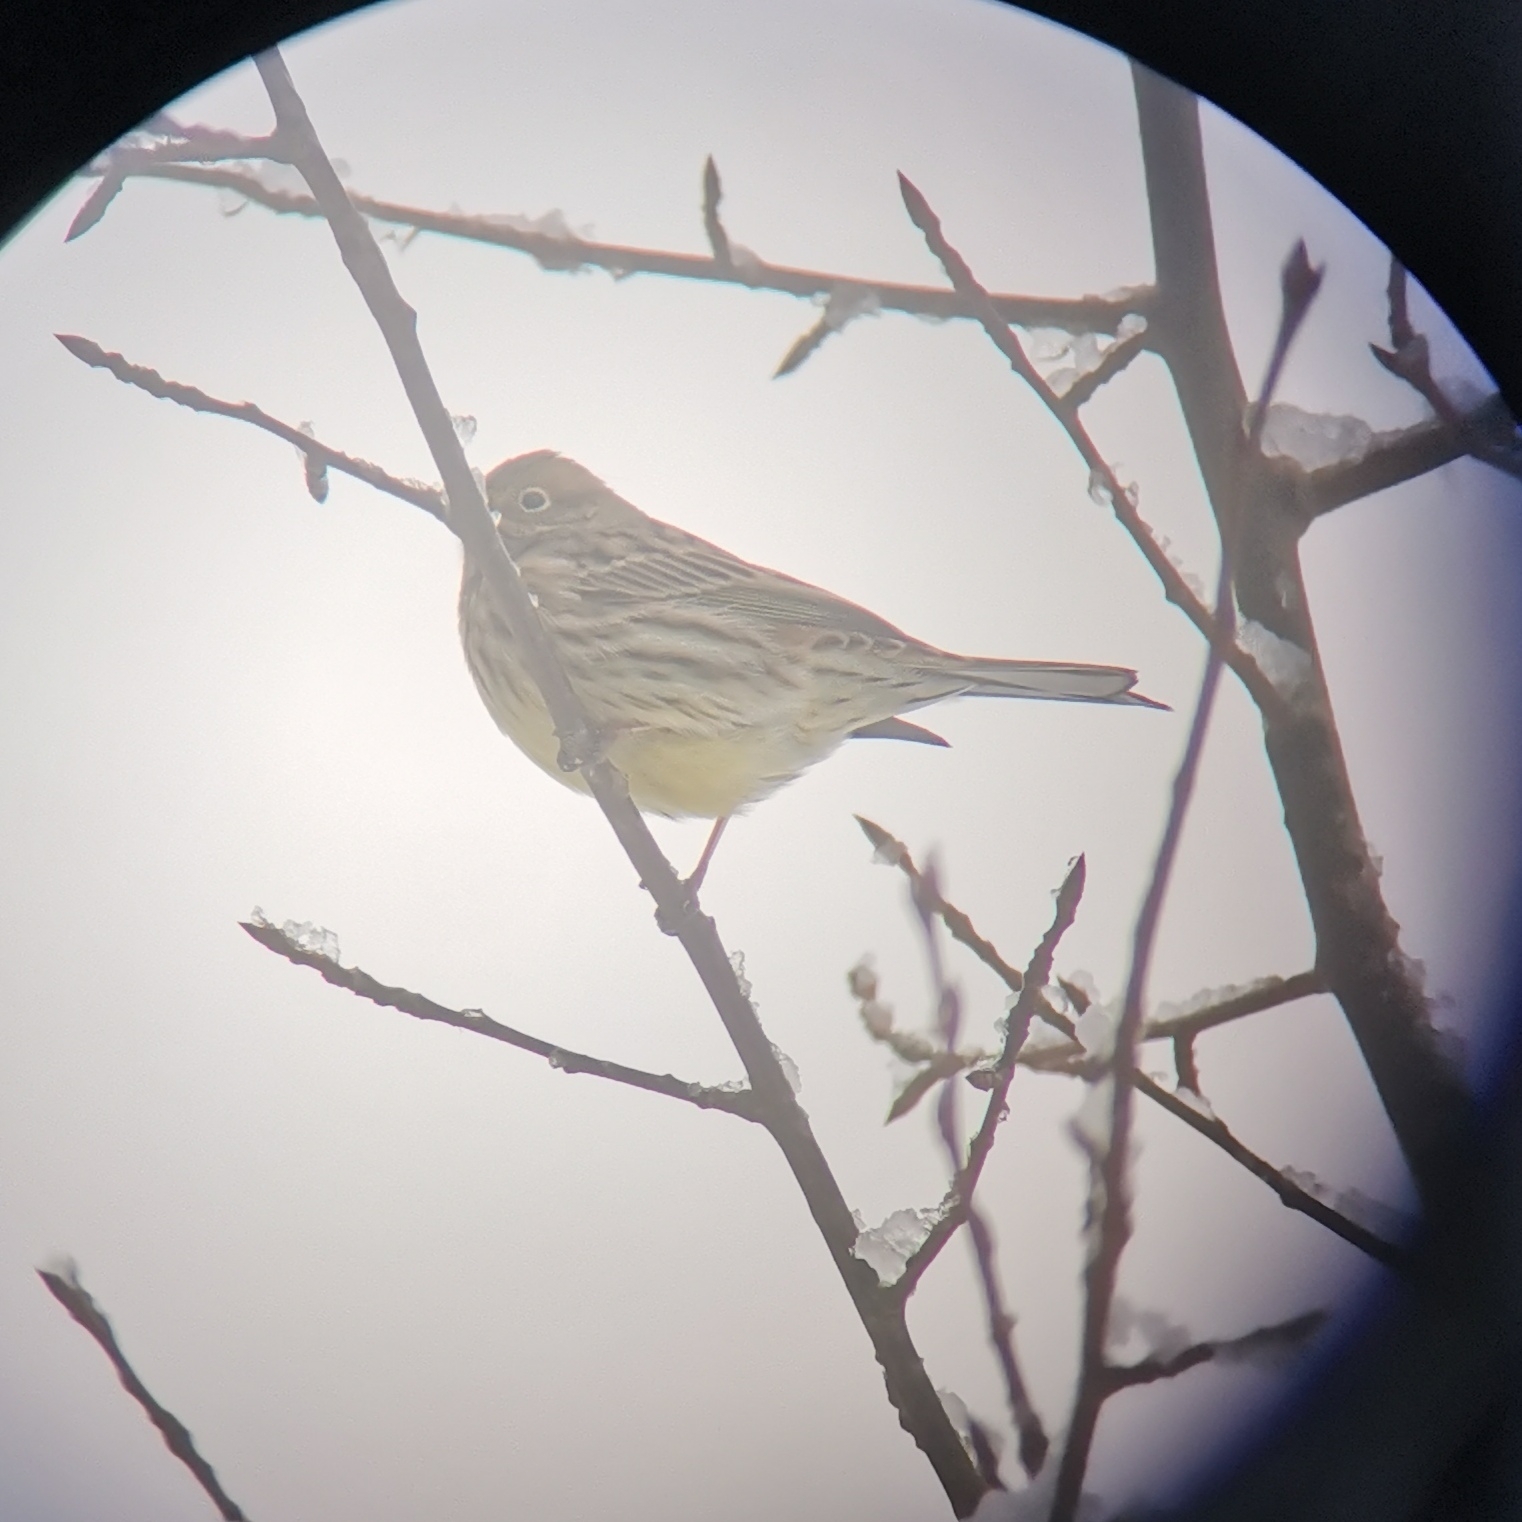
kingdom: Animalia
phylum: Chordata
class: Aves
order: Passeriformes
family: Emberizidae
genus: Emberiza
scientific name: Emberiza citrinella
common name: Yellowhammer
